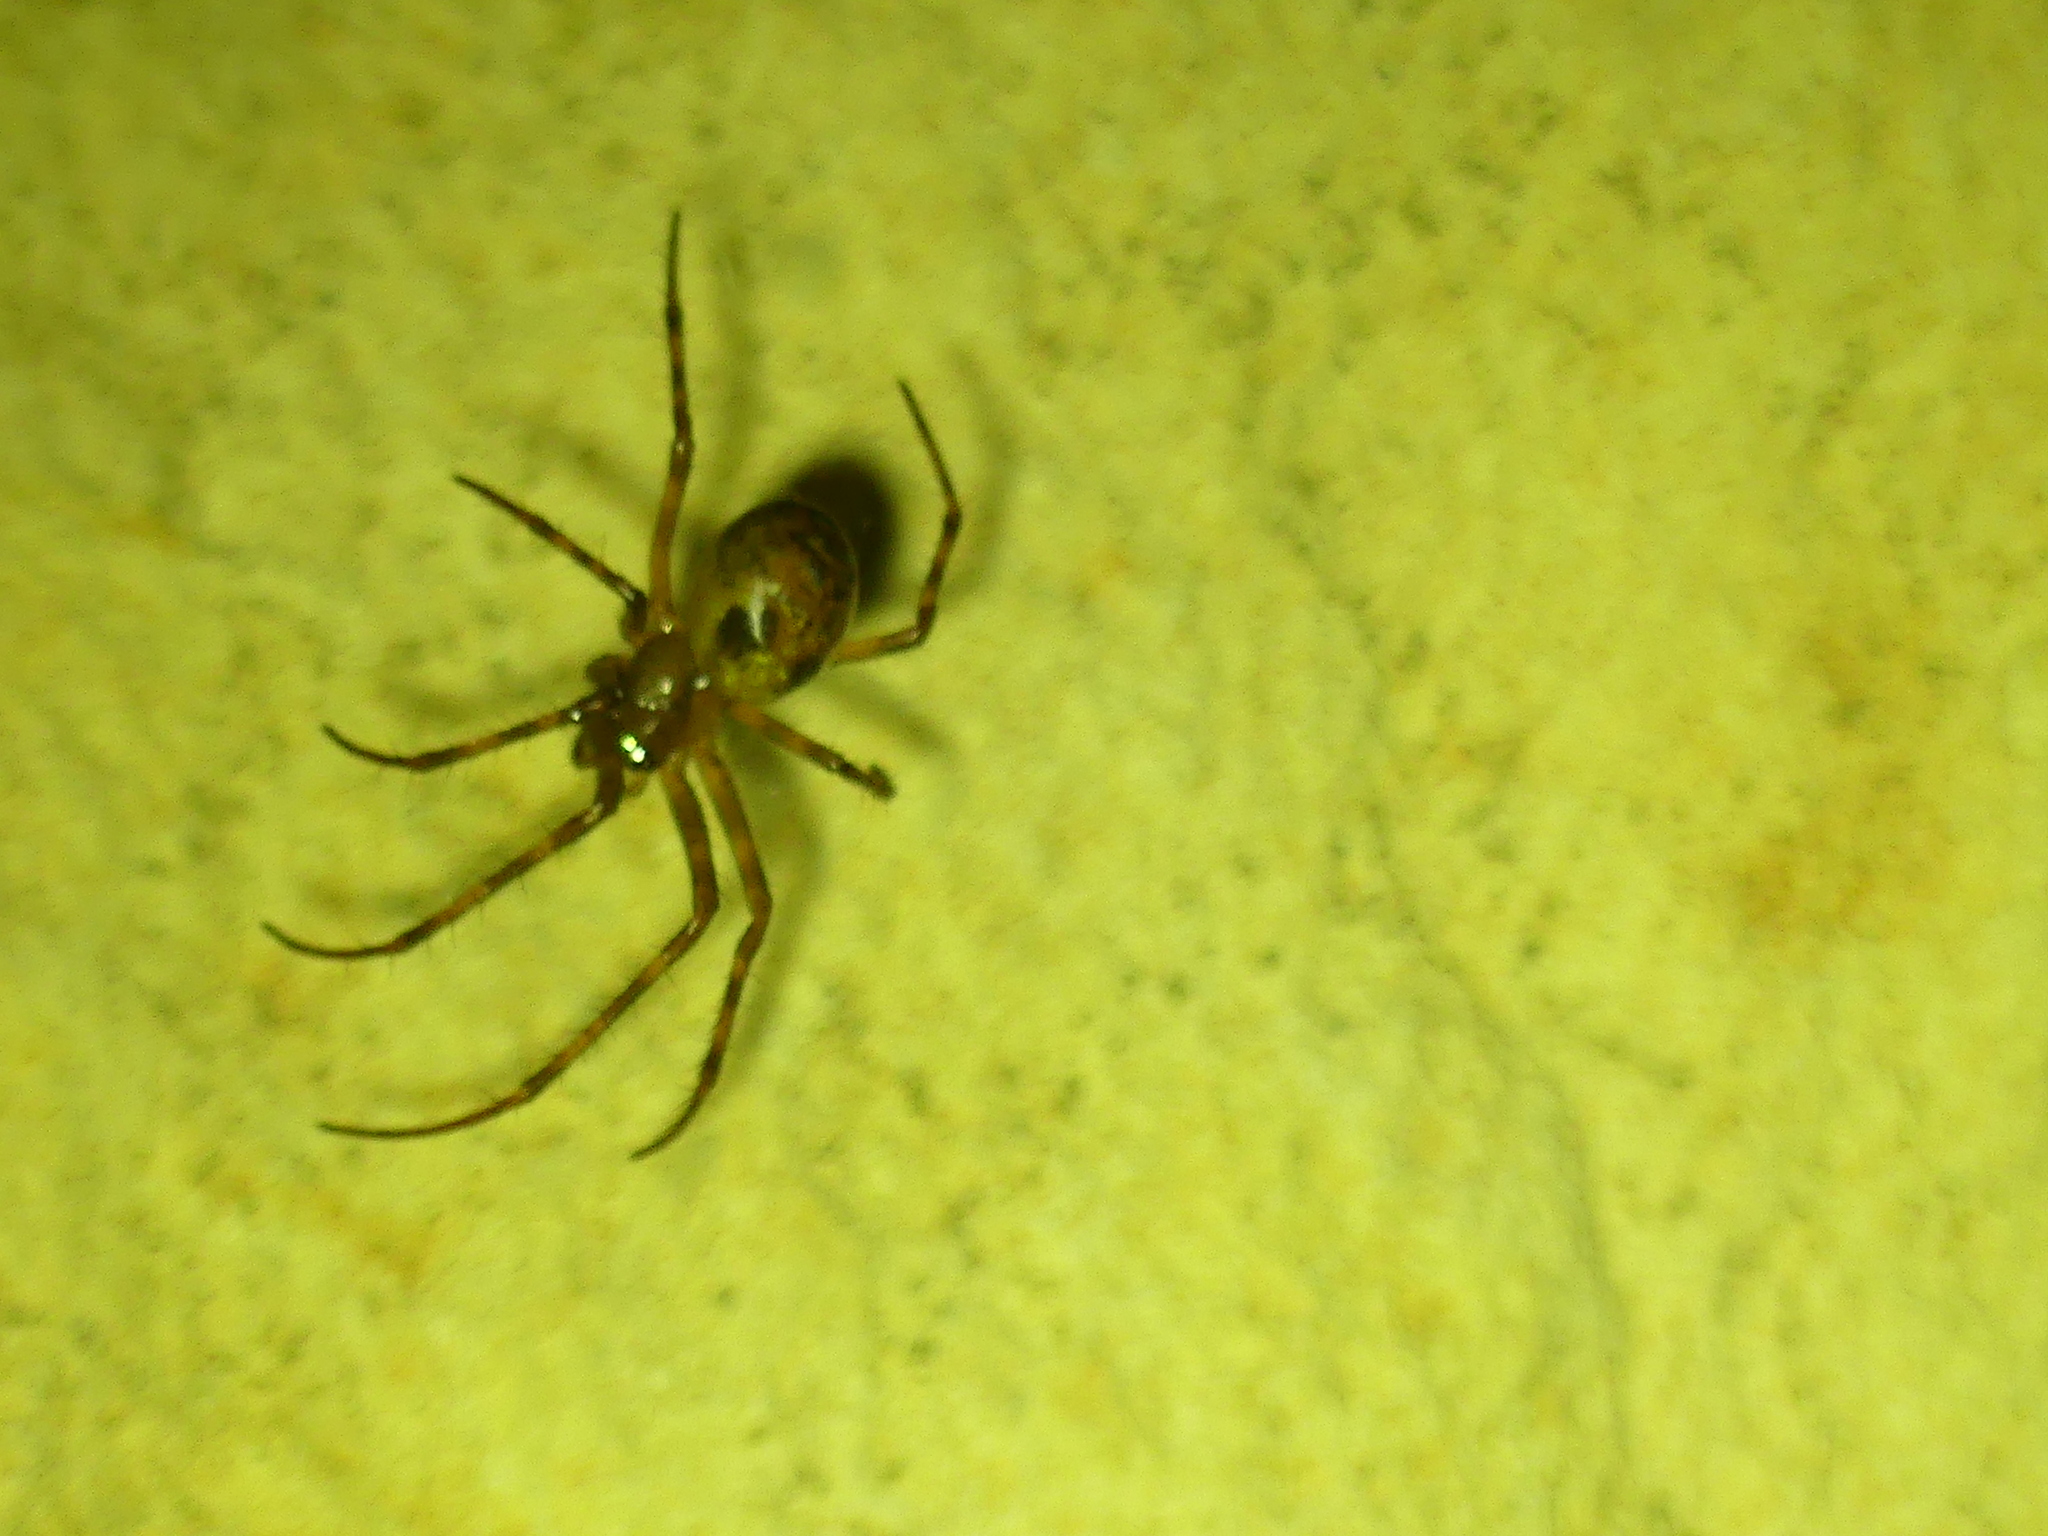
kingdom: Animalia
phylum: Arthropoda
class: Arachnida
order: Araneae
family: Tetragnathidae
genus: Meta
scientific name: Meta menardi
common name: Cave spider
